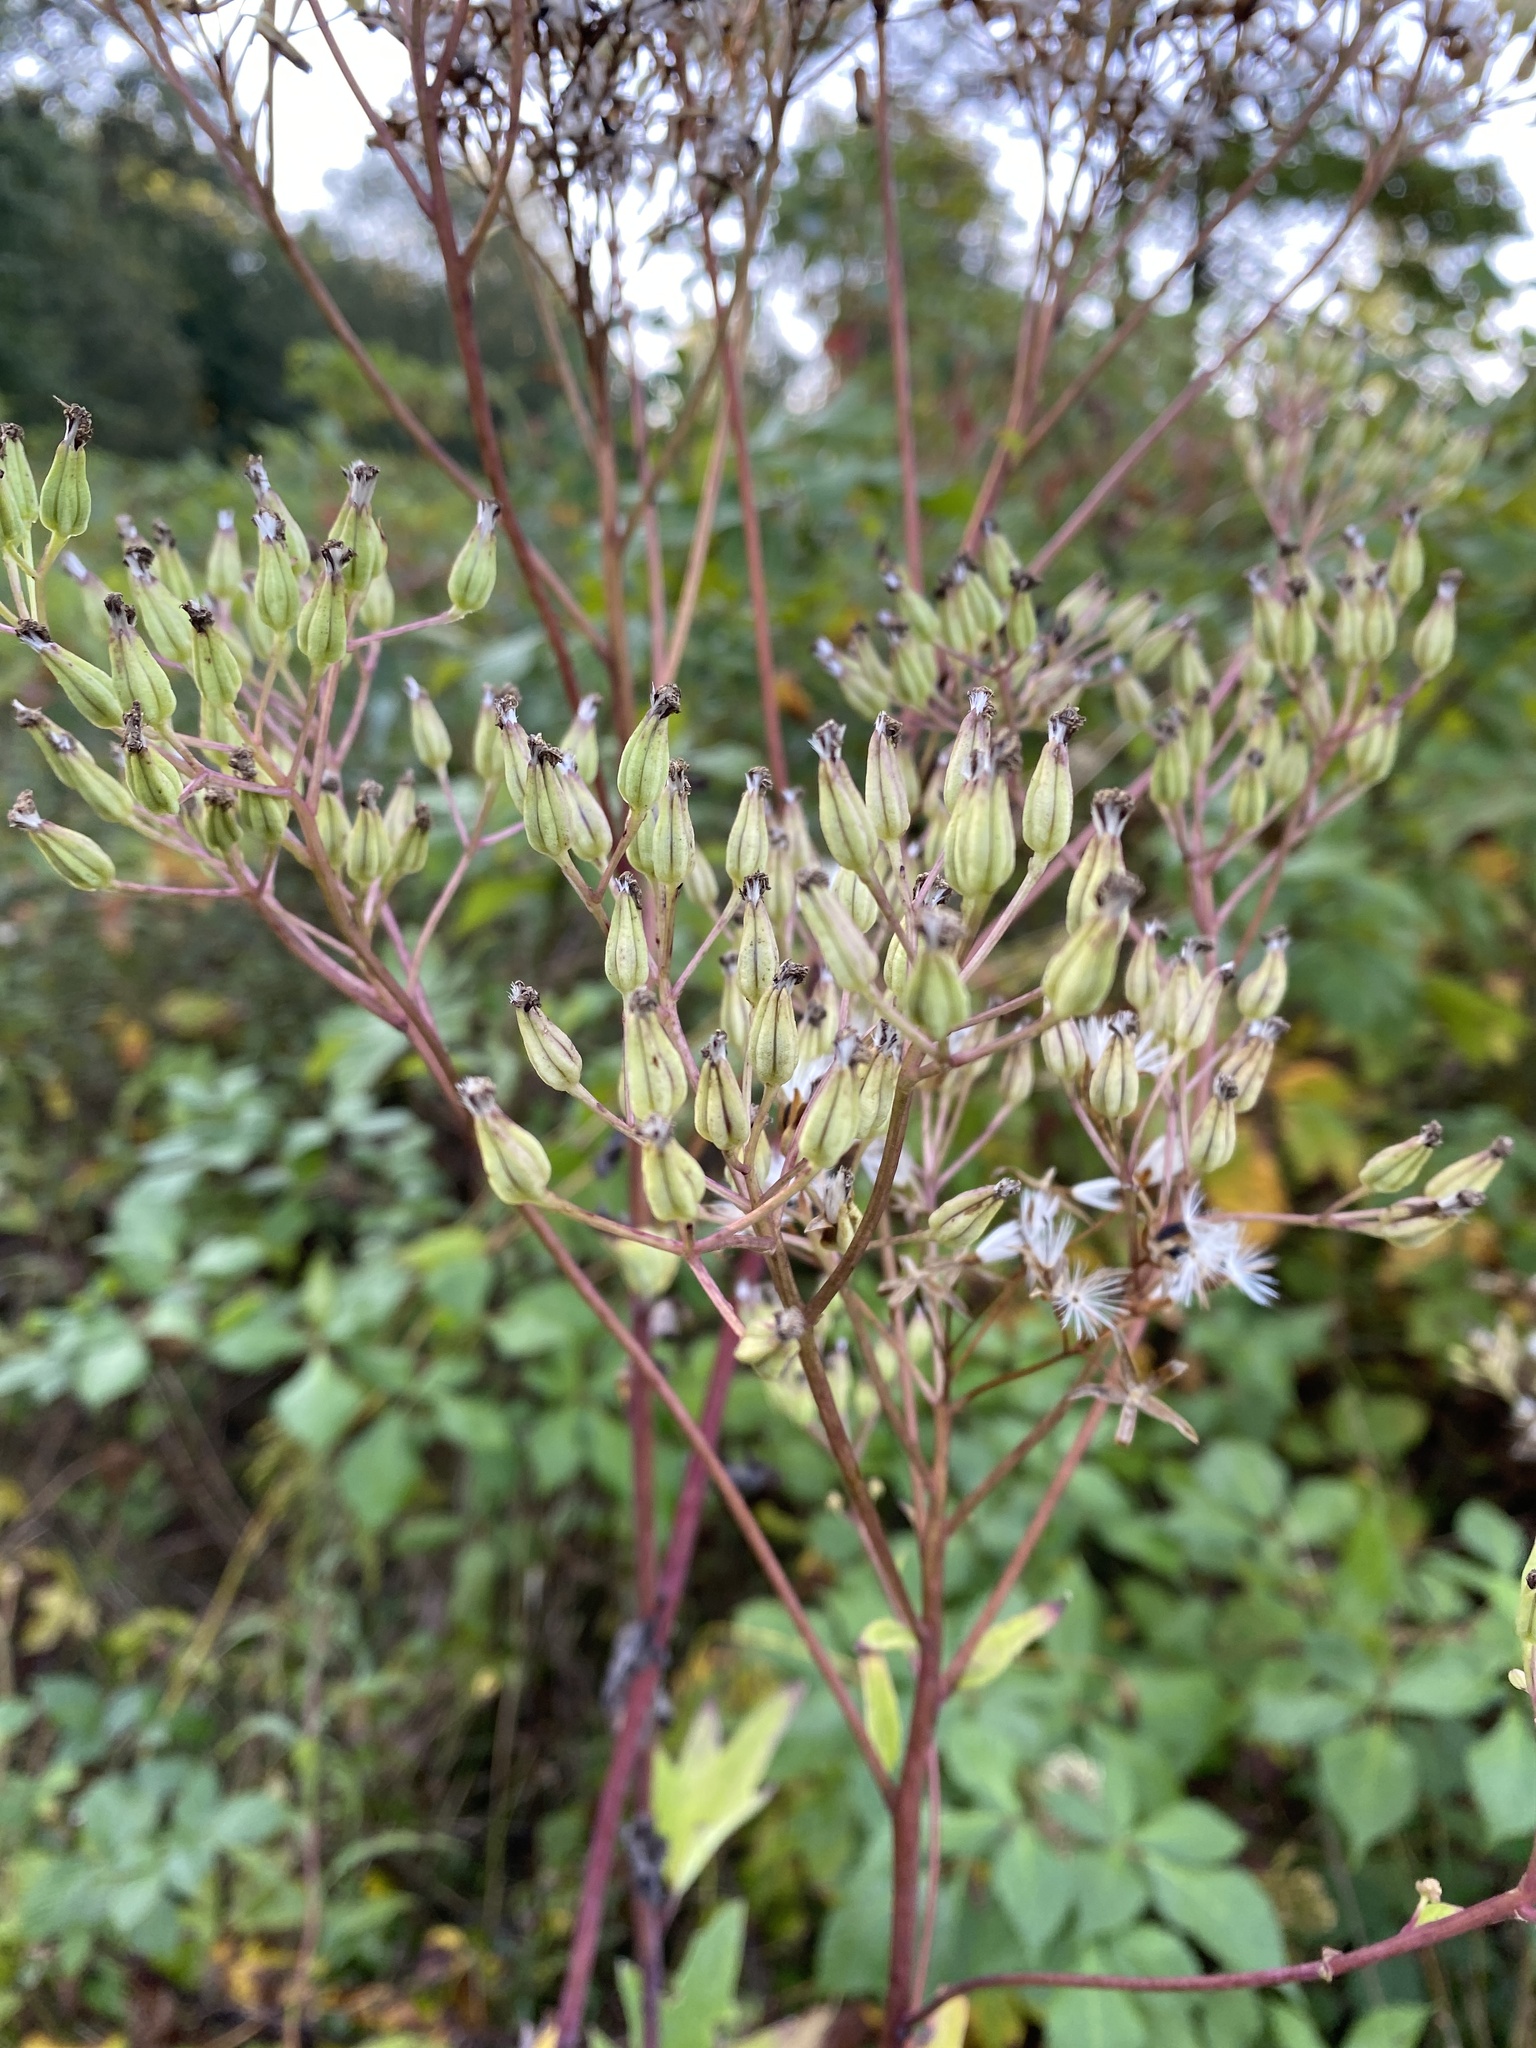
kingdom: Plantae
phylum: Tracheophyta
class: Magnoliopsida
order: Asterales
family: Asteraceae
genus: Arnoglossum
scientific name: Arnoglossum atriplicifolium
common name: Pale indian-plantain
